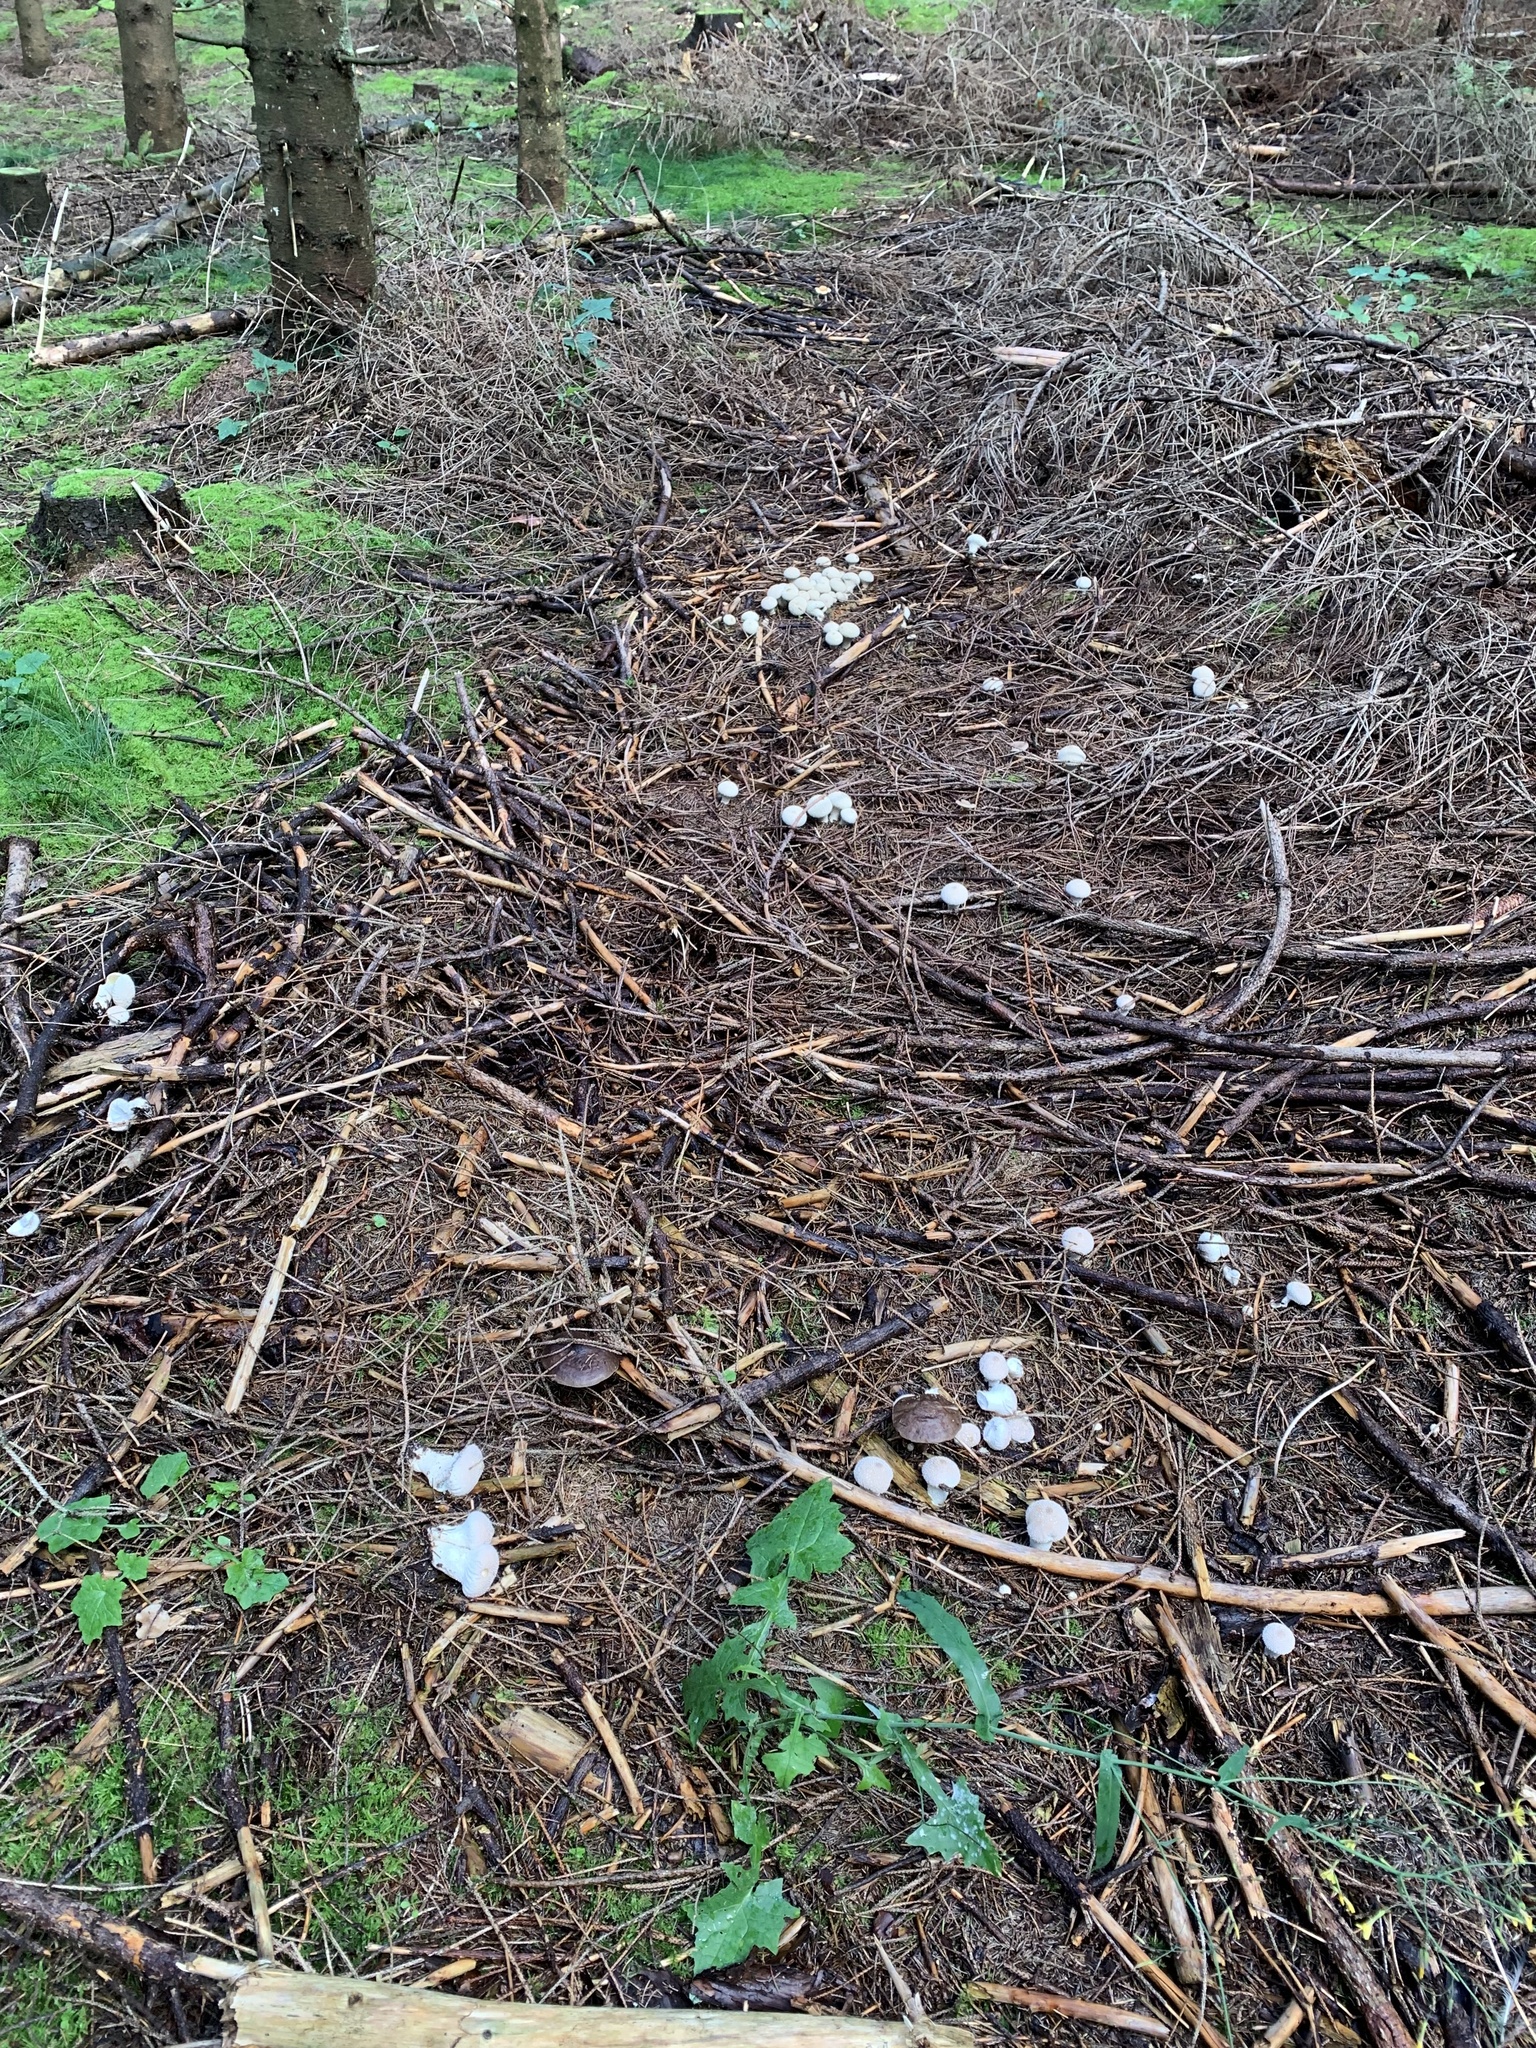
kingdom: Fungi
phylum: Basidiomycota
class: Agaricomycetes
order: Agaricales
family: Lycoperdaceae
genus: Lycoperdon
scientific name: Lycoperdon perlatum
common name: Common puffball
